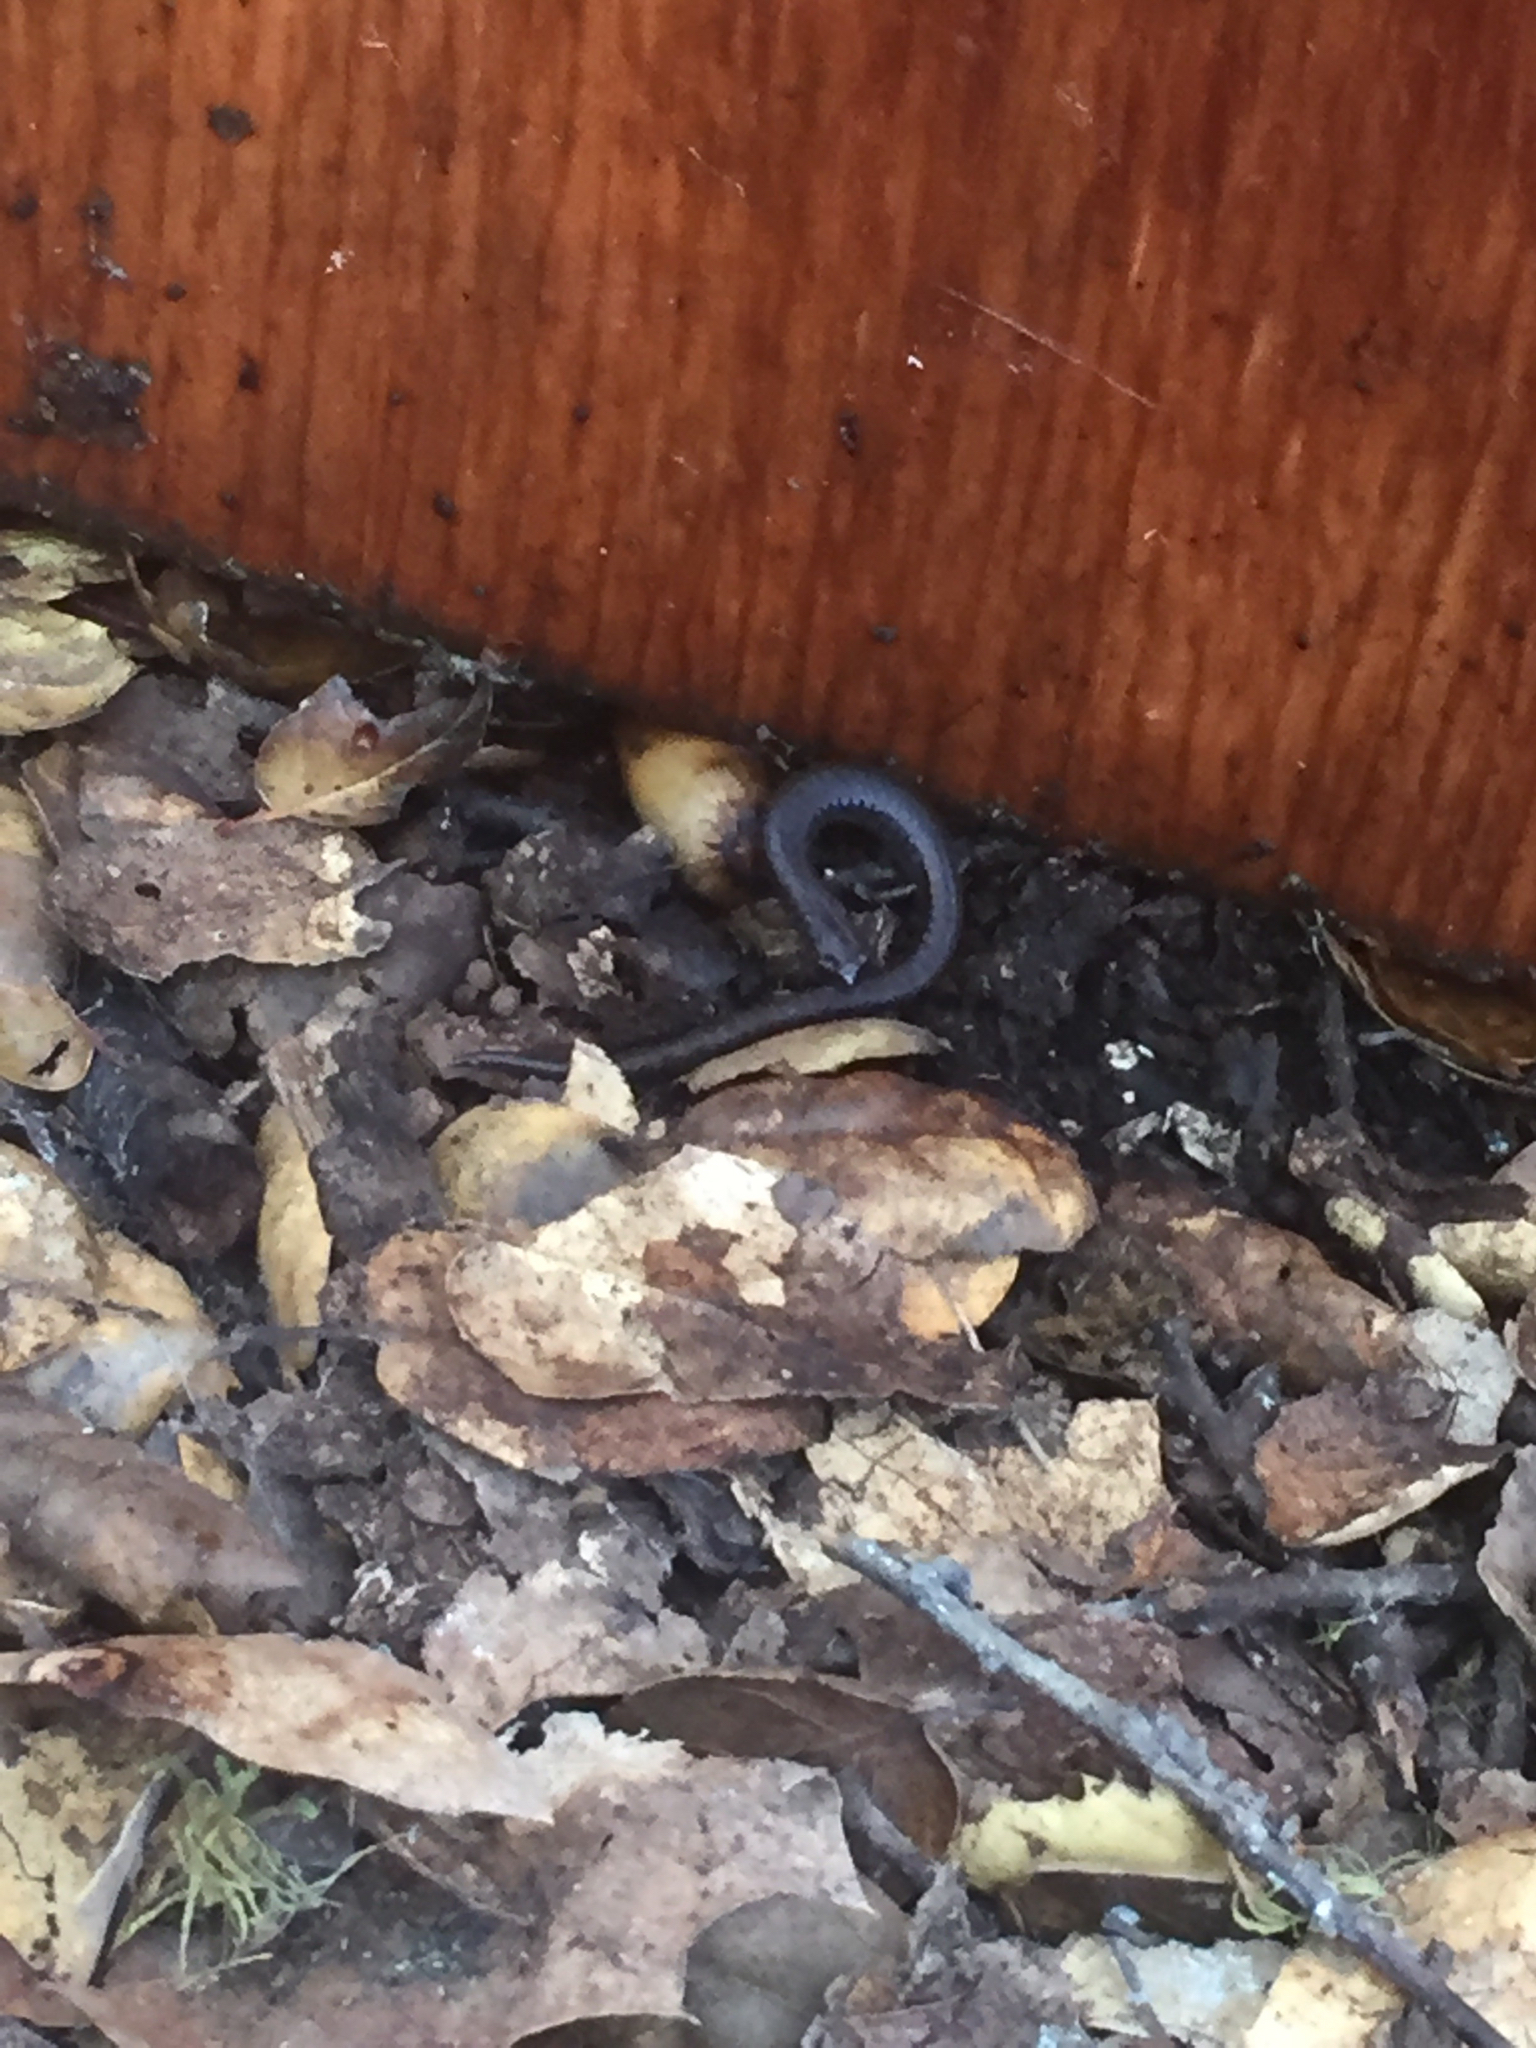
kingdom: Animalia
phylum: Chordata
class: Amphibia
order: Caudata
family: Plethodontidae
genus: Batrachoseps
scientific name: Batrachoseps attenuatus
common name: California slender salamander
